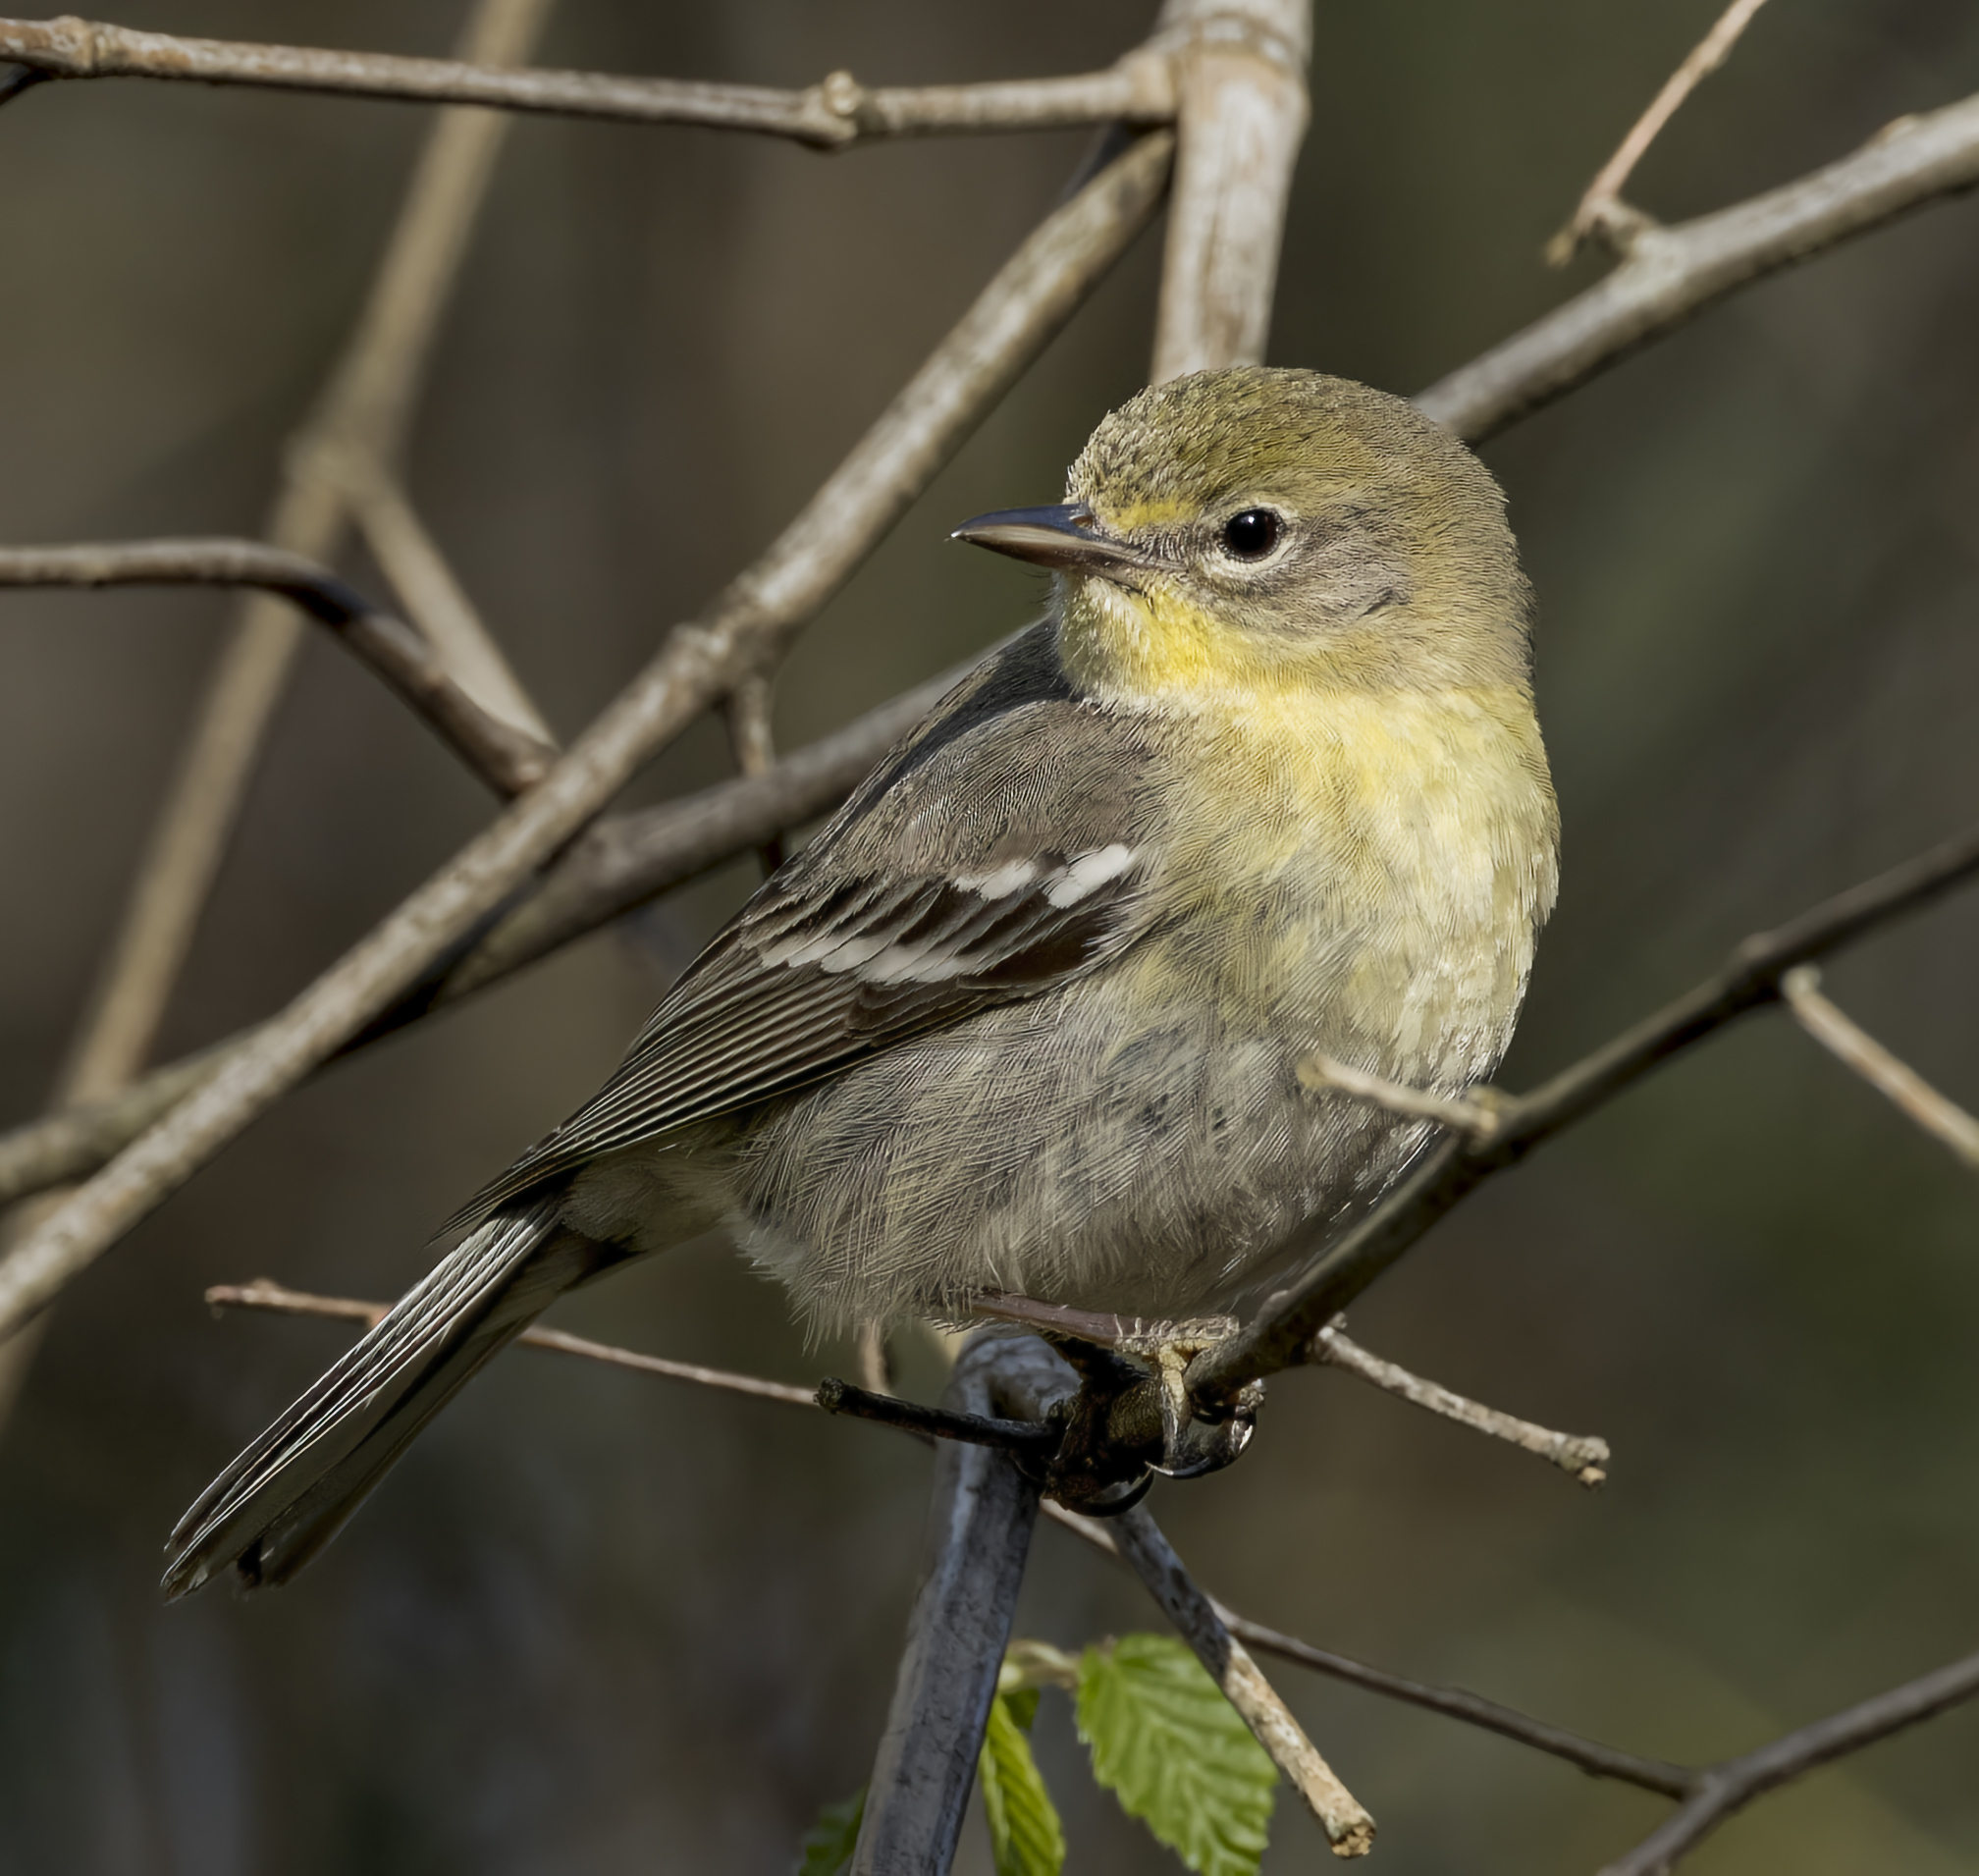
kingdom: Animalia
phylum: Chordata
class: Aves
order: Passeriformes
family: Parulidae
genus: Setophaga
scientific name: Setophaga pinus
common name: Pine warbler
